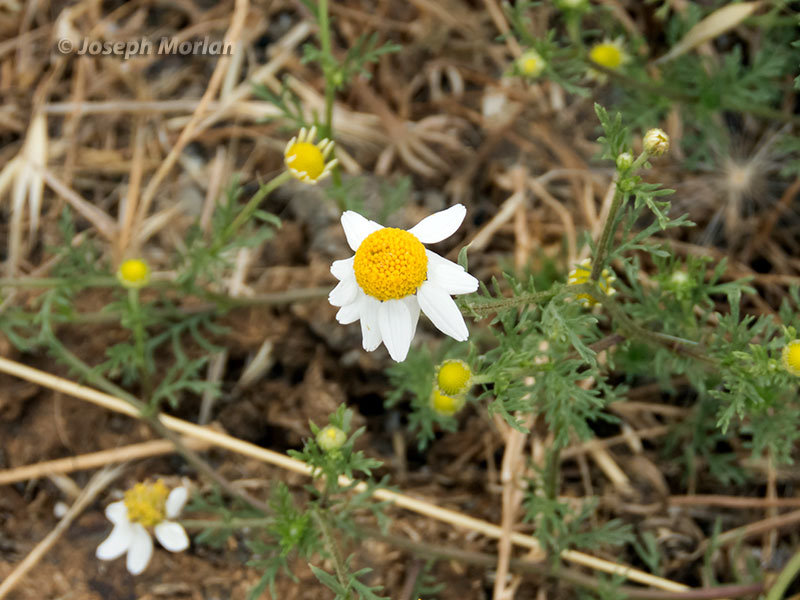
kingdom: Plantae
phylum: Tracheophyta
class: Magnoliopsida
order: Asterales
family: Asteraceae
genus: Anthemis
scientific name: Anthemis cotula
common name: Stinking chamomile
